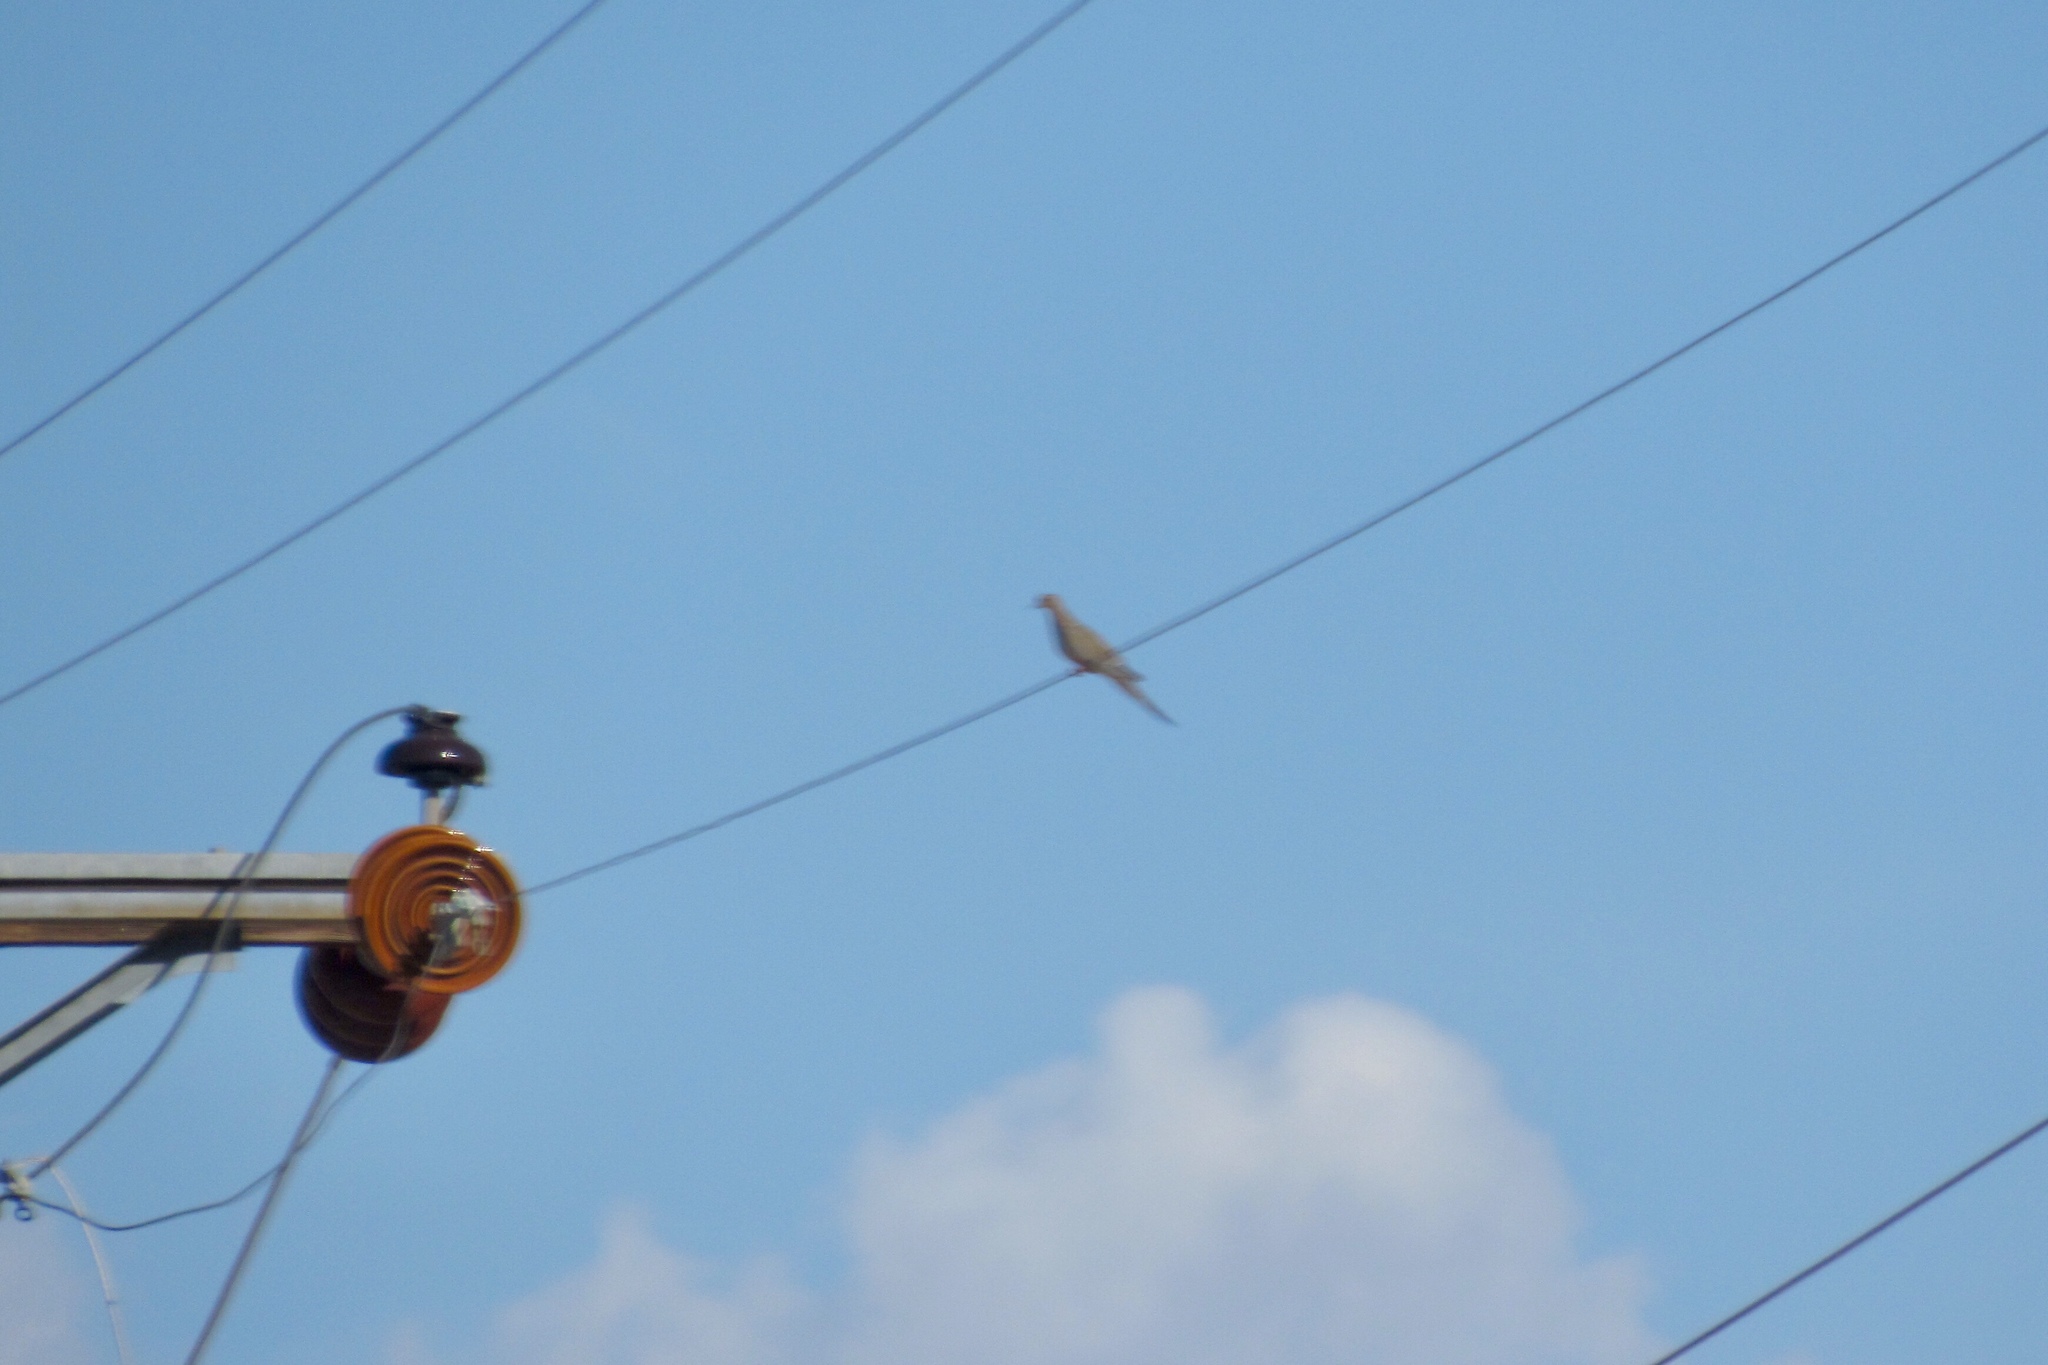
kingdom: Animalia
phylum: Chordata
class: Aves
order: Columbiformes
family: Columbidae
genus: Zenaida
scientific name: Zenaida macroura
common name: Mourning dove
